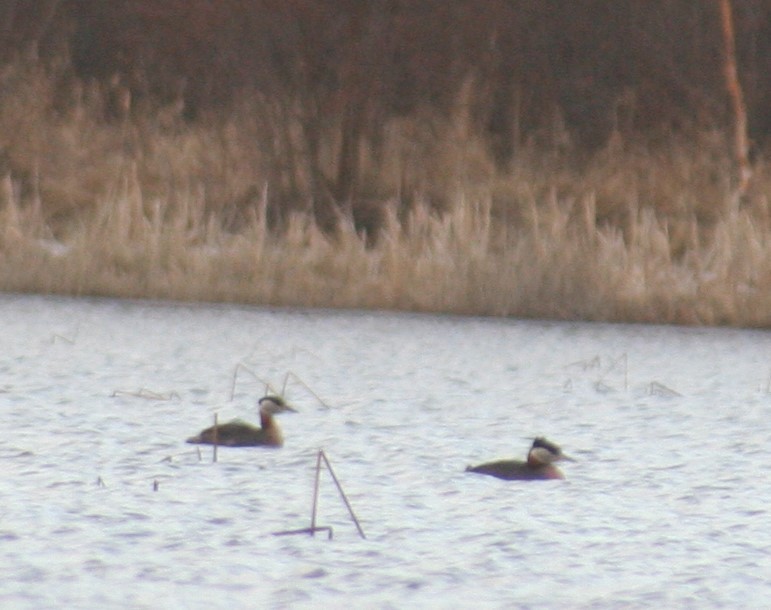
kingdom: Animalia
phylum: Chordata
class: Aves
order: Podicipediformes
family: Podicipedidae
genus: Podiceps
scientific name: Podiceps grisegena
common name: Red-necked grebe
